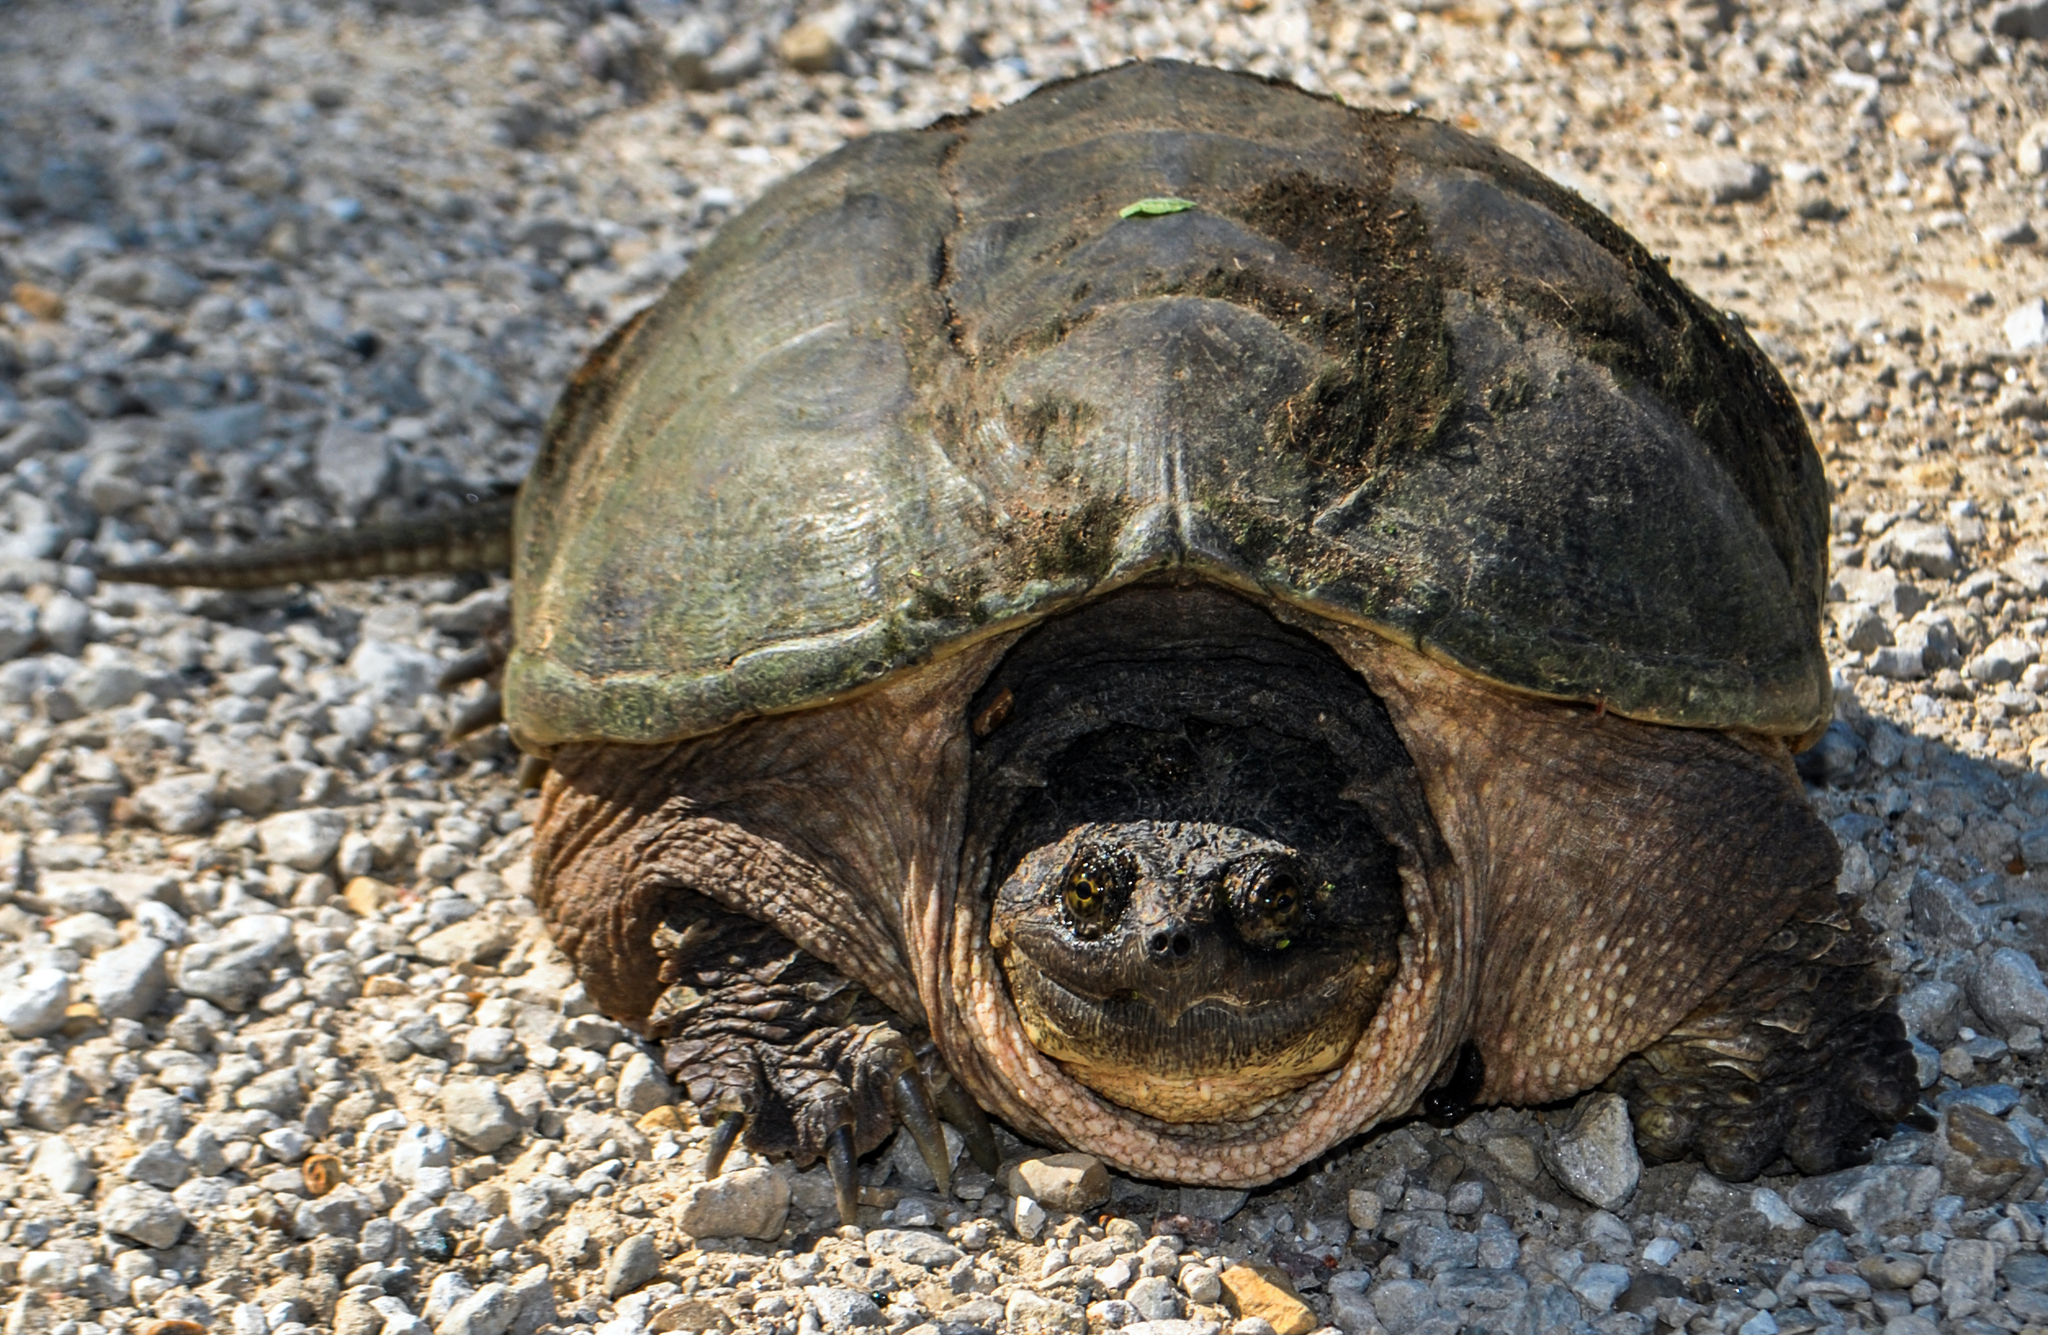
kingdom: Animalia
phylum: Chordata
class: Testudines
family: Chelydridae
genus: Chelydra
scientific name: Chelydra serpentina
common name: Common snapping turtle
